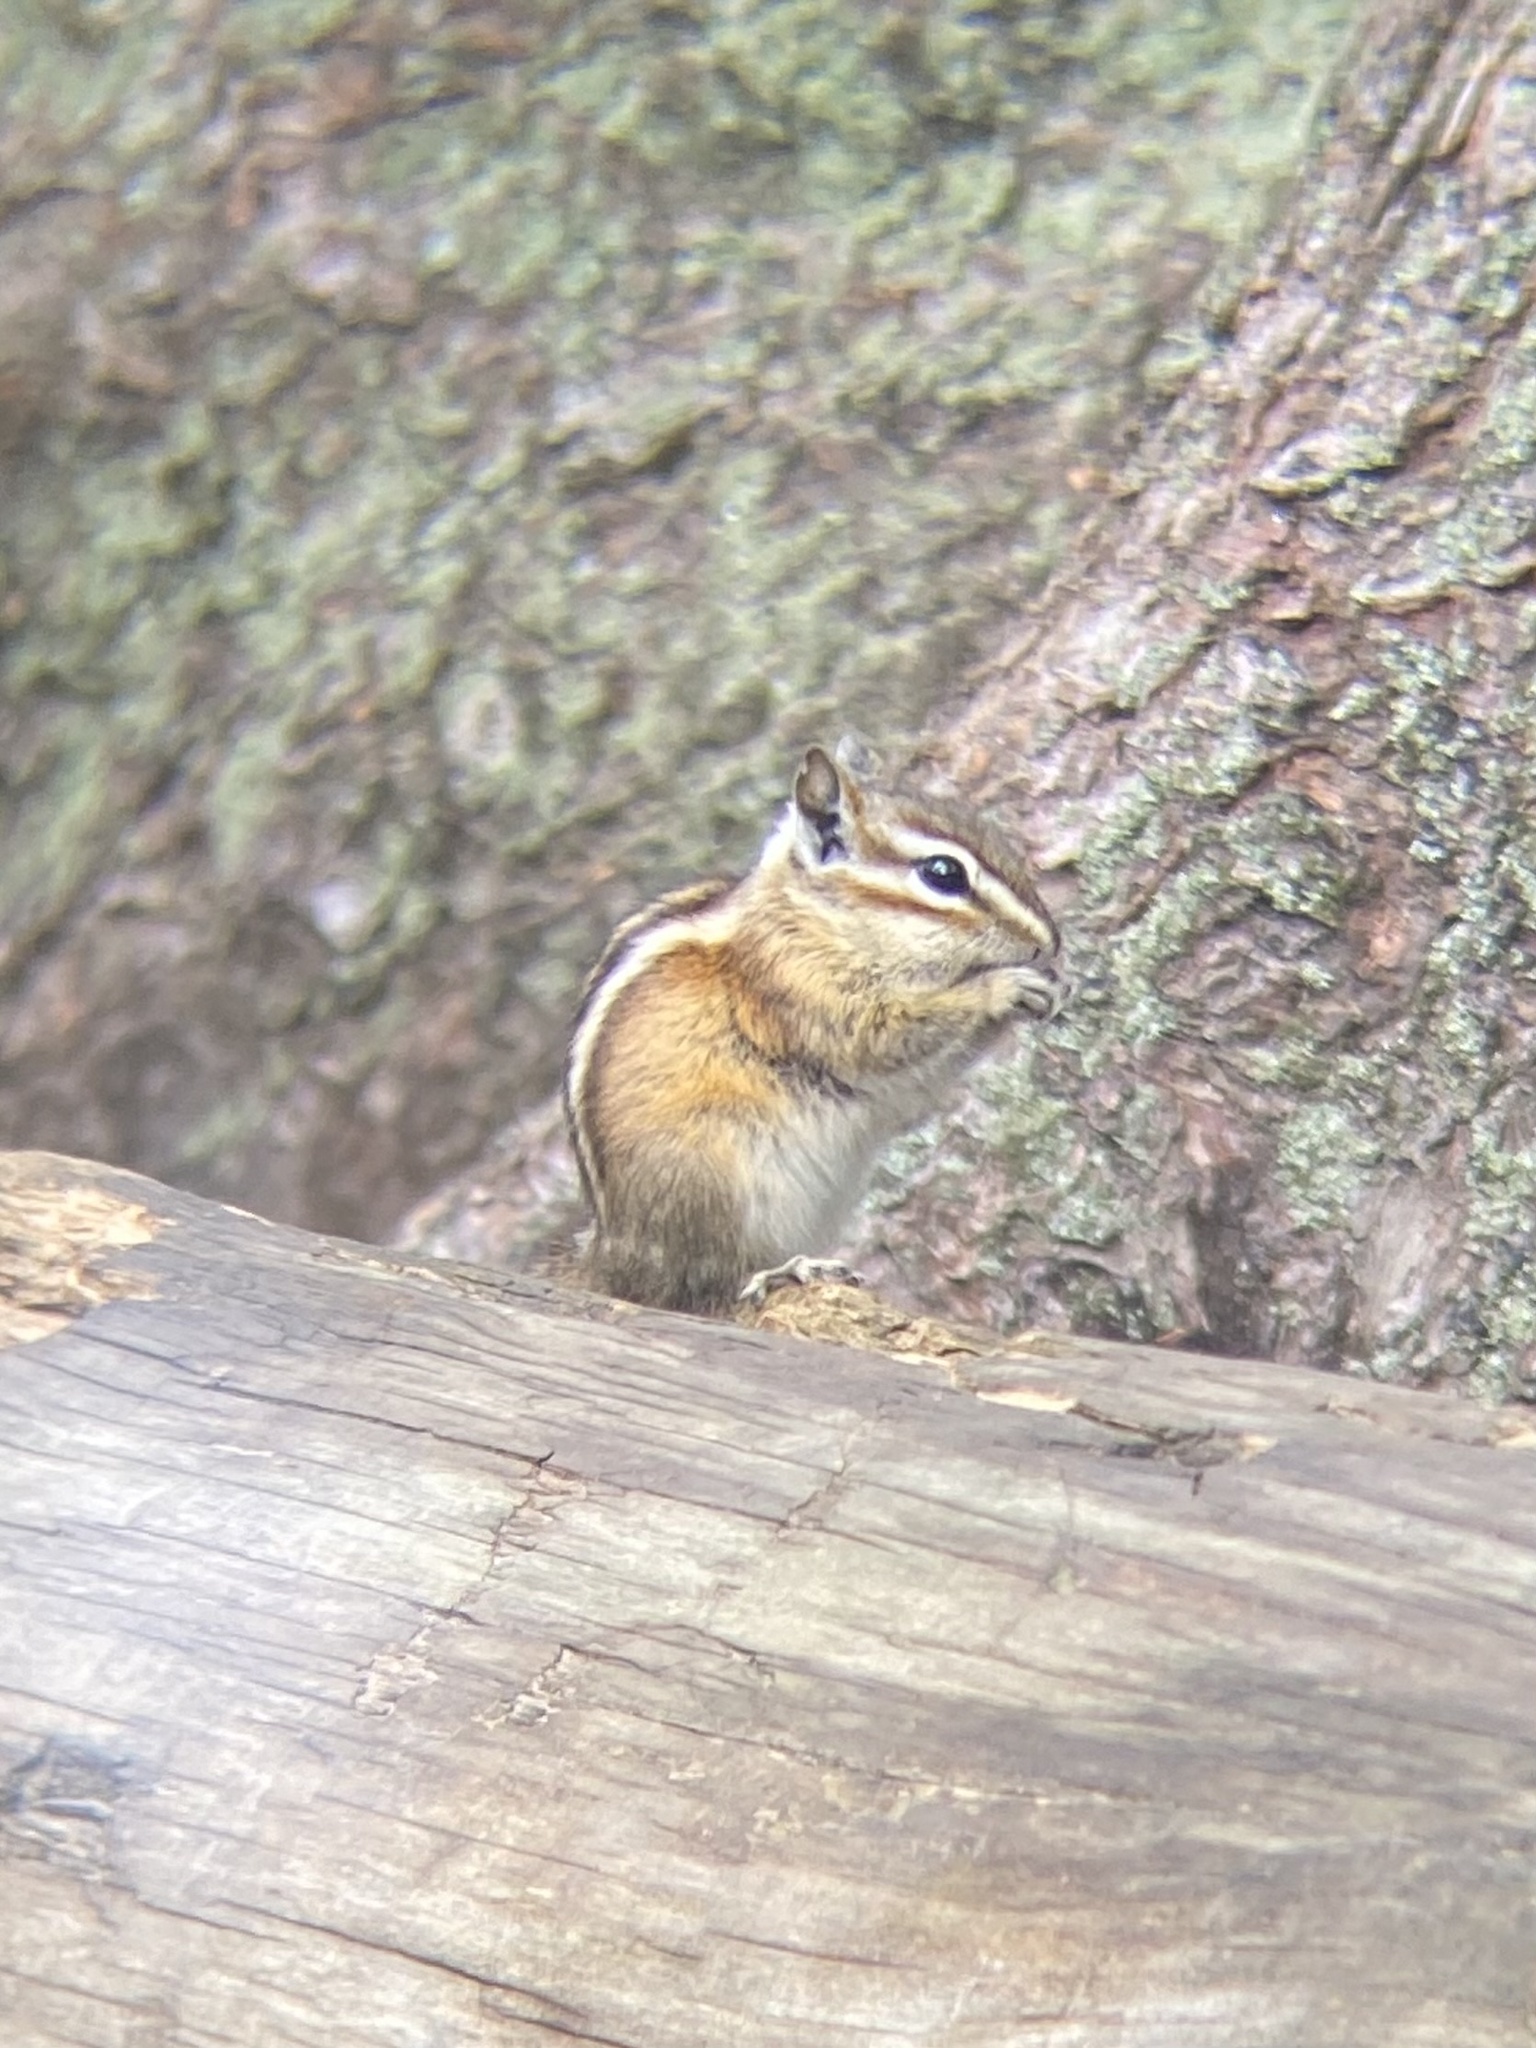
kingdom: Animalia
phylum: Chordata
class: Mammalia
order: Rodentia
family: Sciuridae
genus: Tamias
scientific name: Tamias minimus
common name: Least chipmunk
